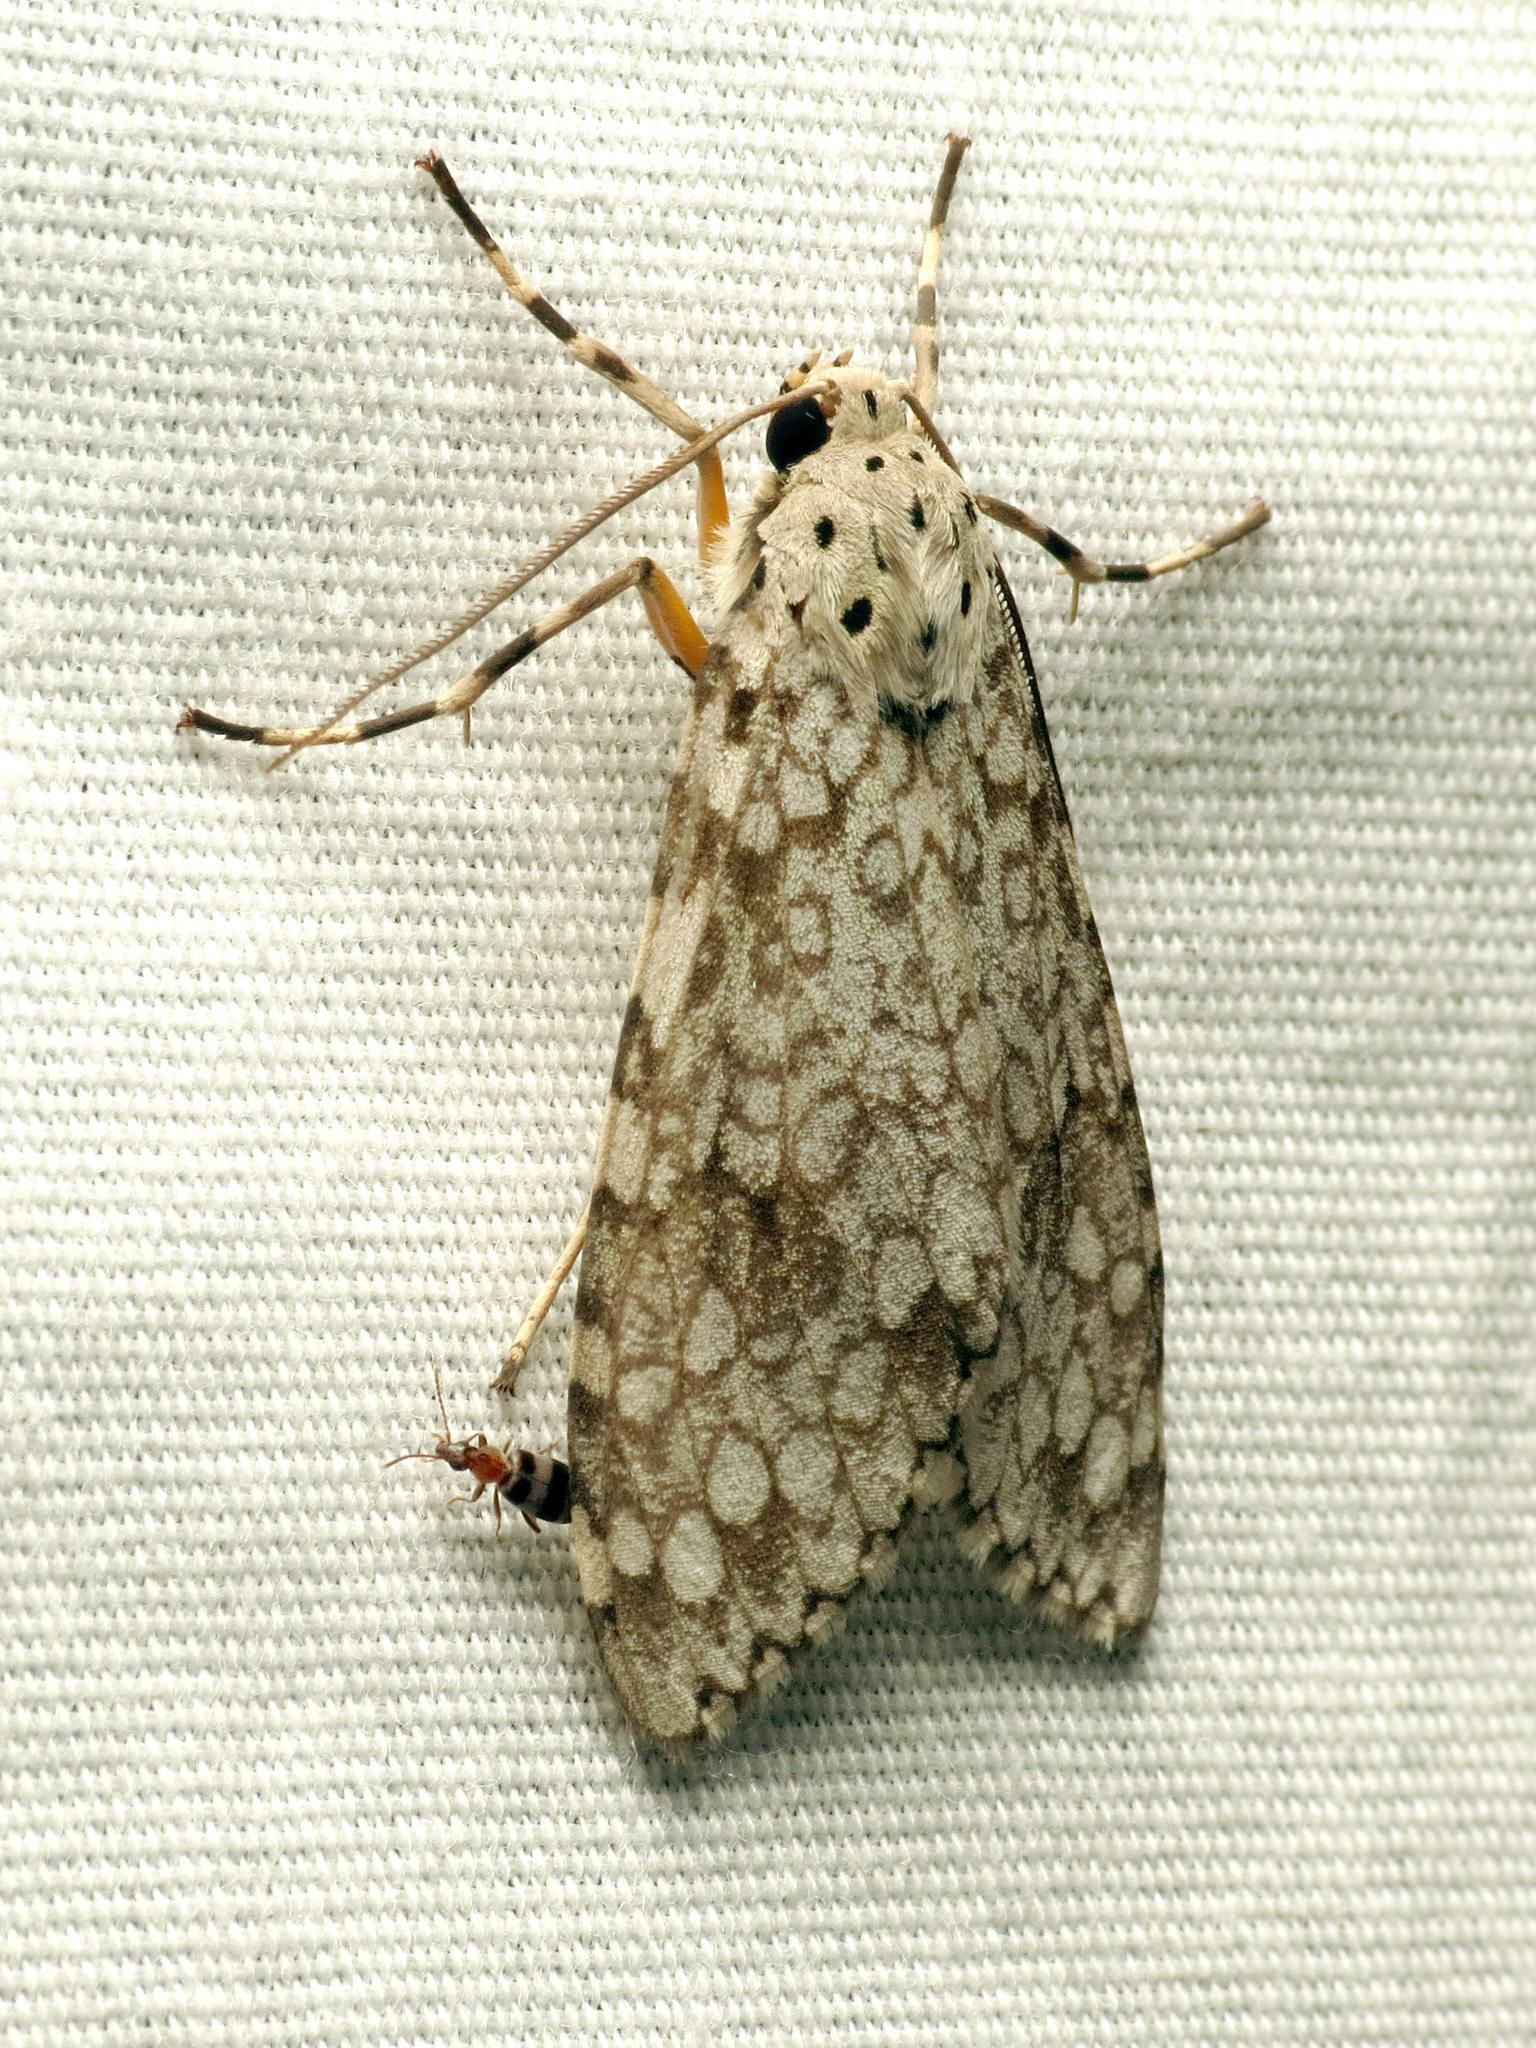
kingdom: Animalia
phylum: Arthropoda
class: Insecta
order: Lepidoptera
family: Erebidae
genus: Carales
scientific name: Carales arizonensis
